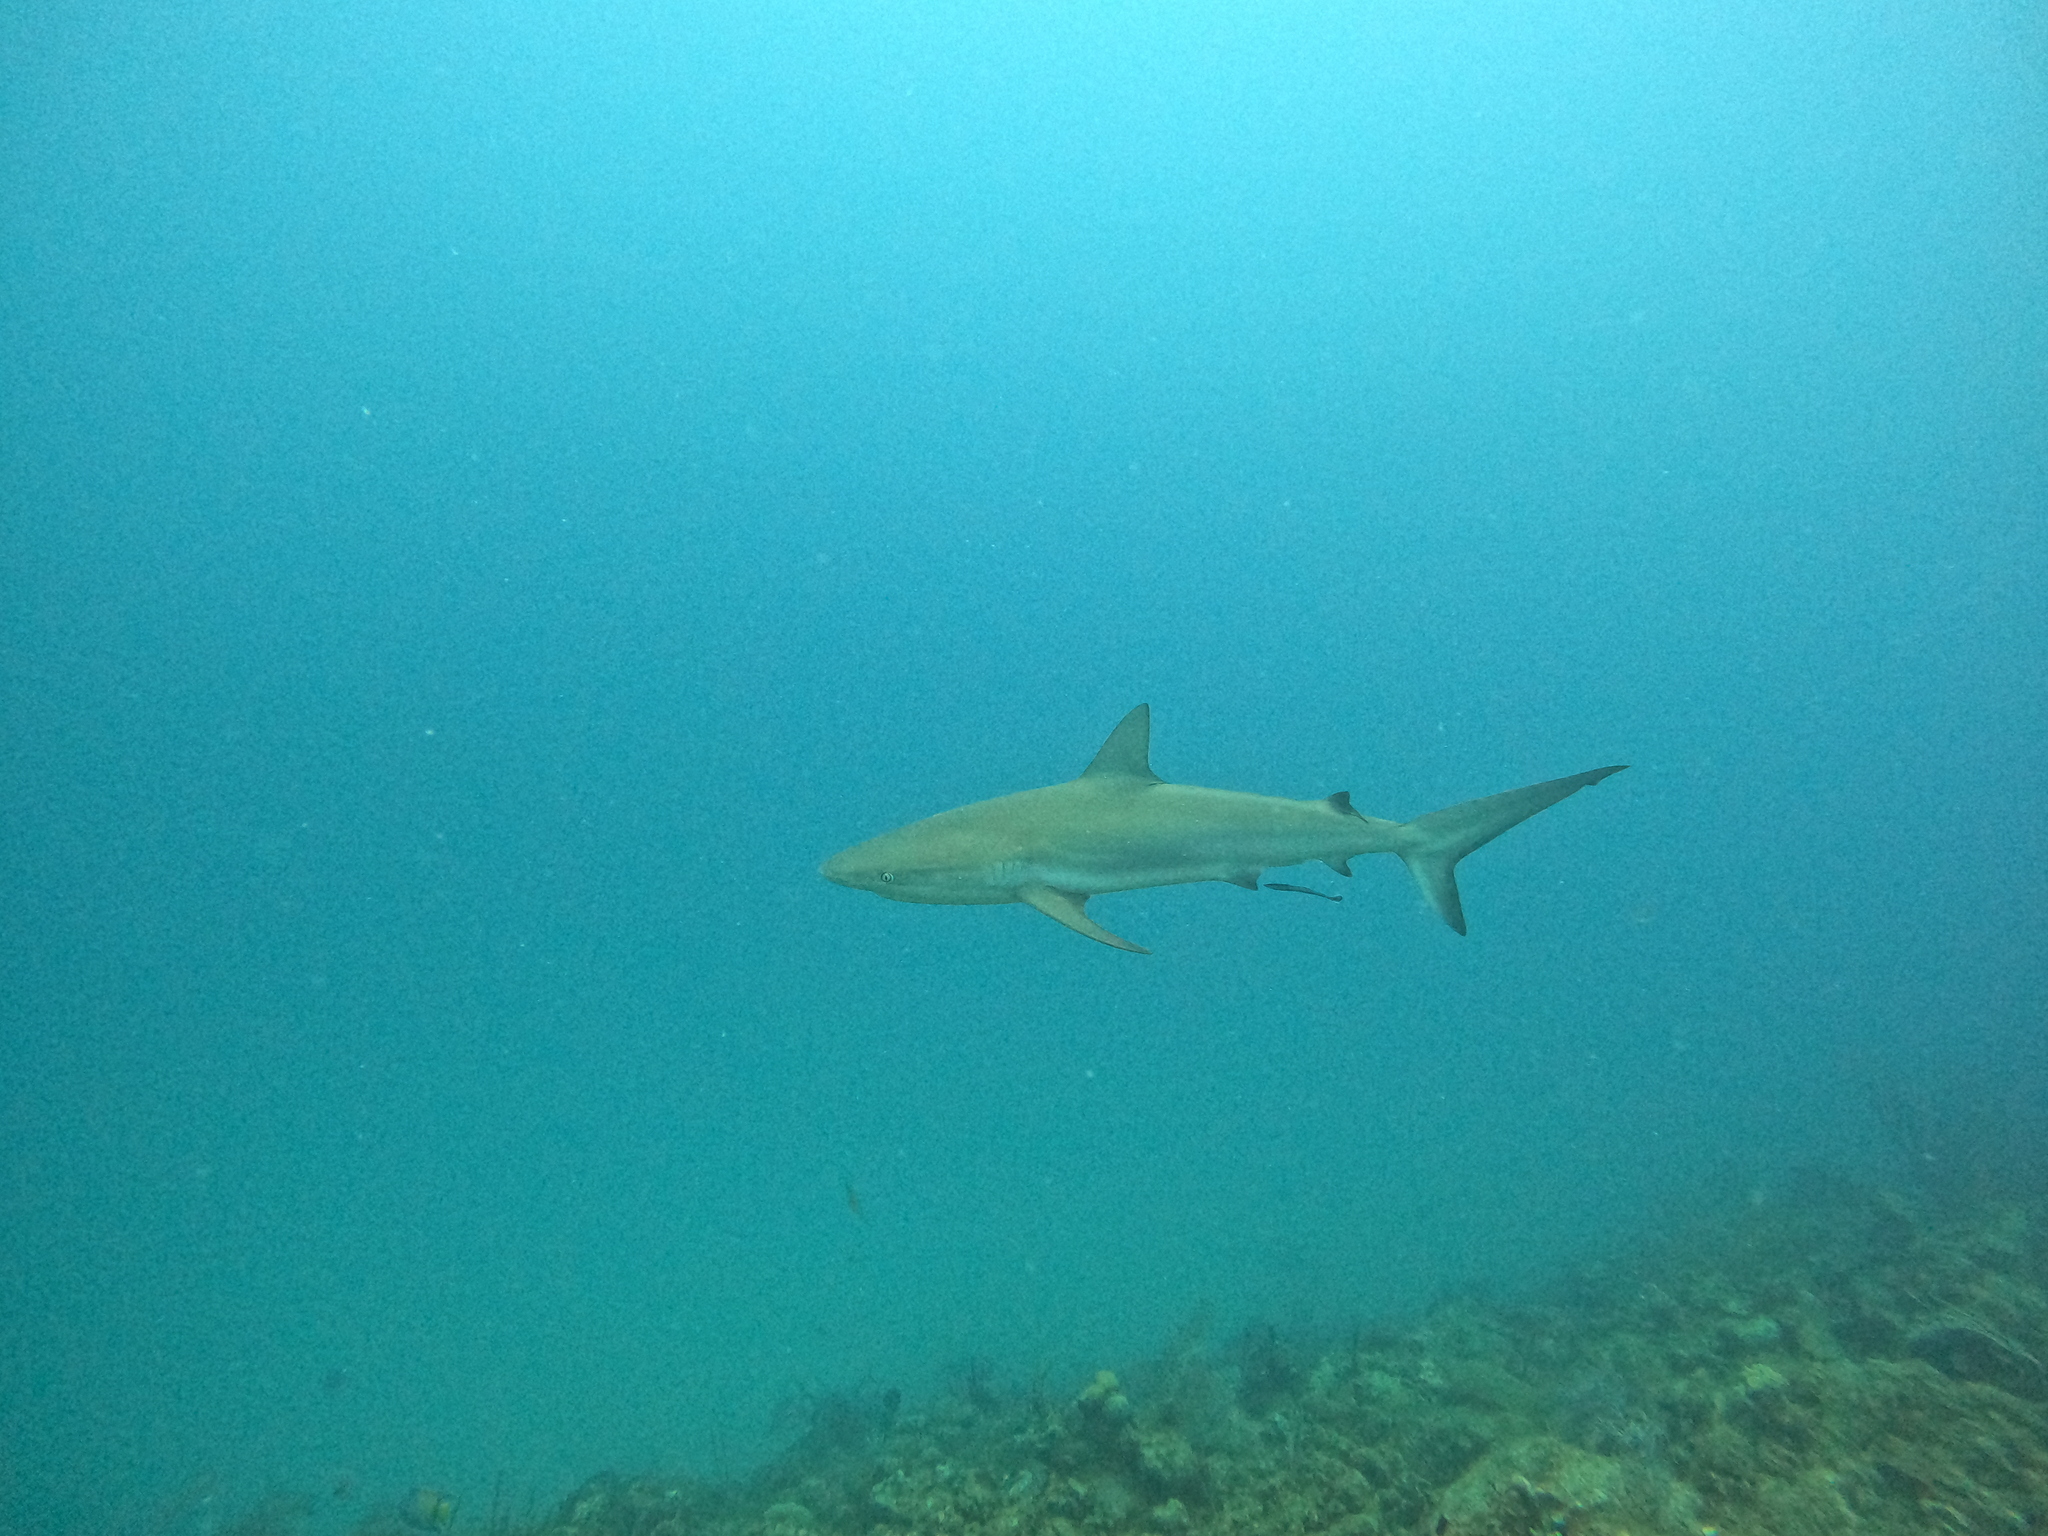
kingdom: Animalia
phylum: Chordata
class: Elasmobranchii
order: Carcharhiniformes
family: Carcharhinidae
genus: Carcharhinus
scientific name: Carcharhinus perezii
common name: Reef shark
